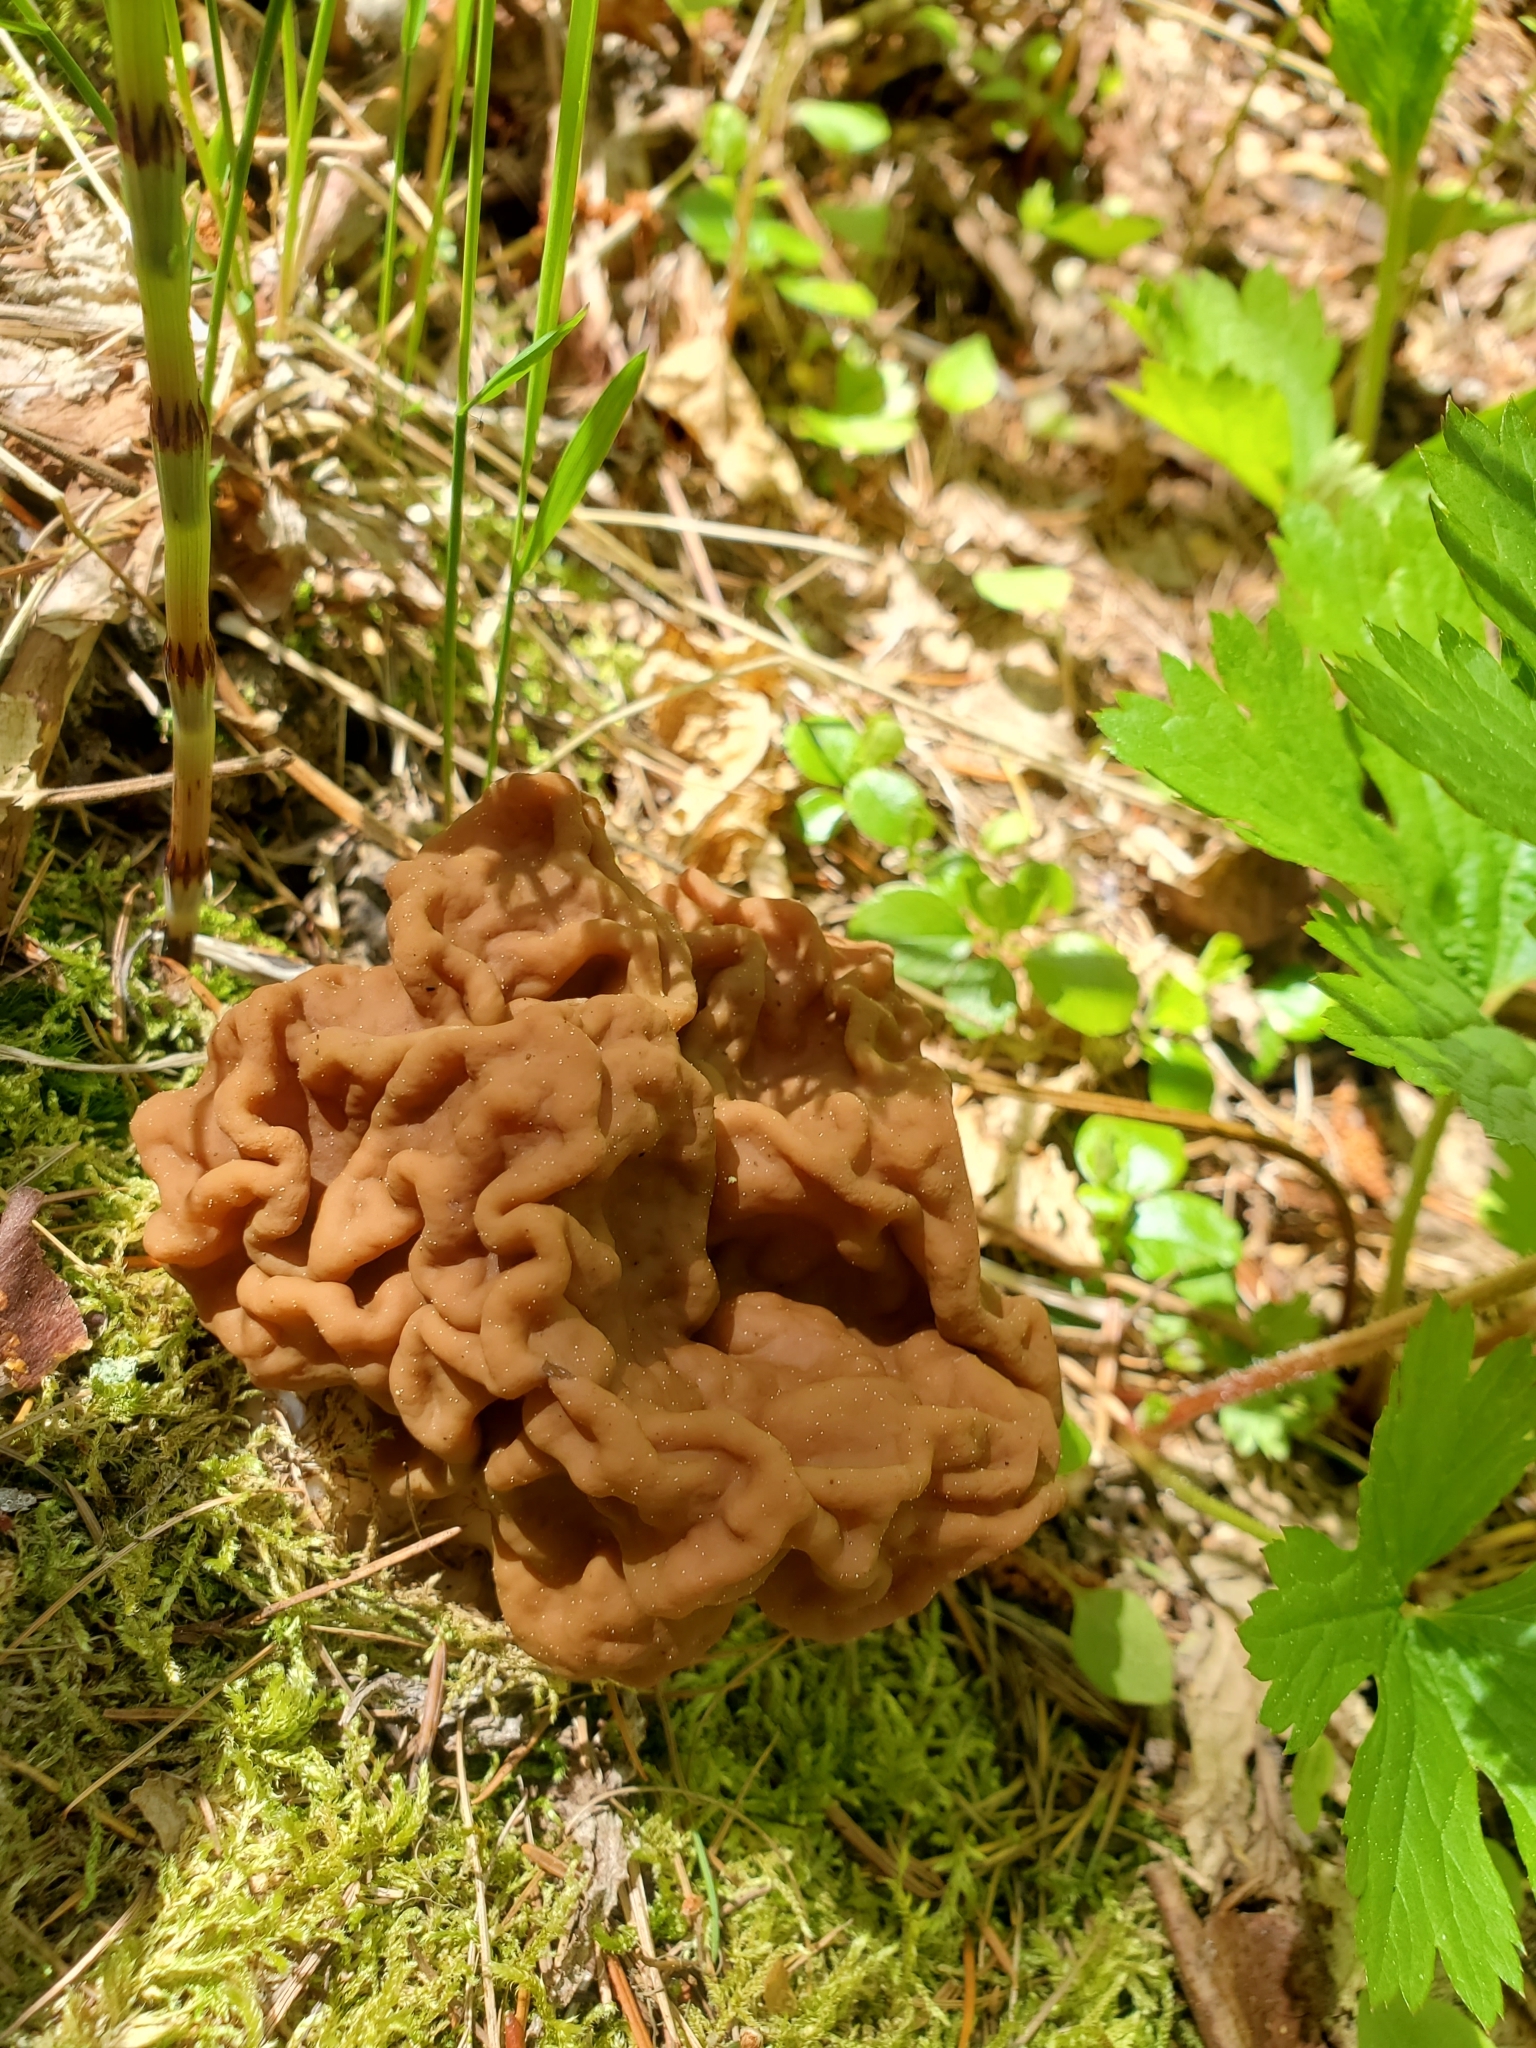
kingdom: Fungi
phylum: Ascomycota
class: Pezizomycetes
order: Pezizales
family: Discinaceae
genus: Discina
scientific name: Discina montana
